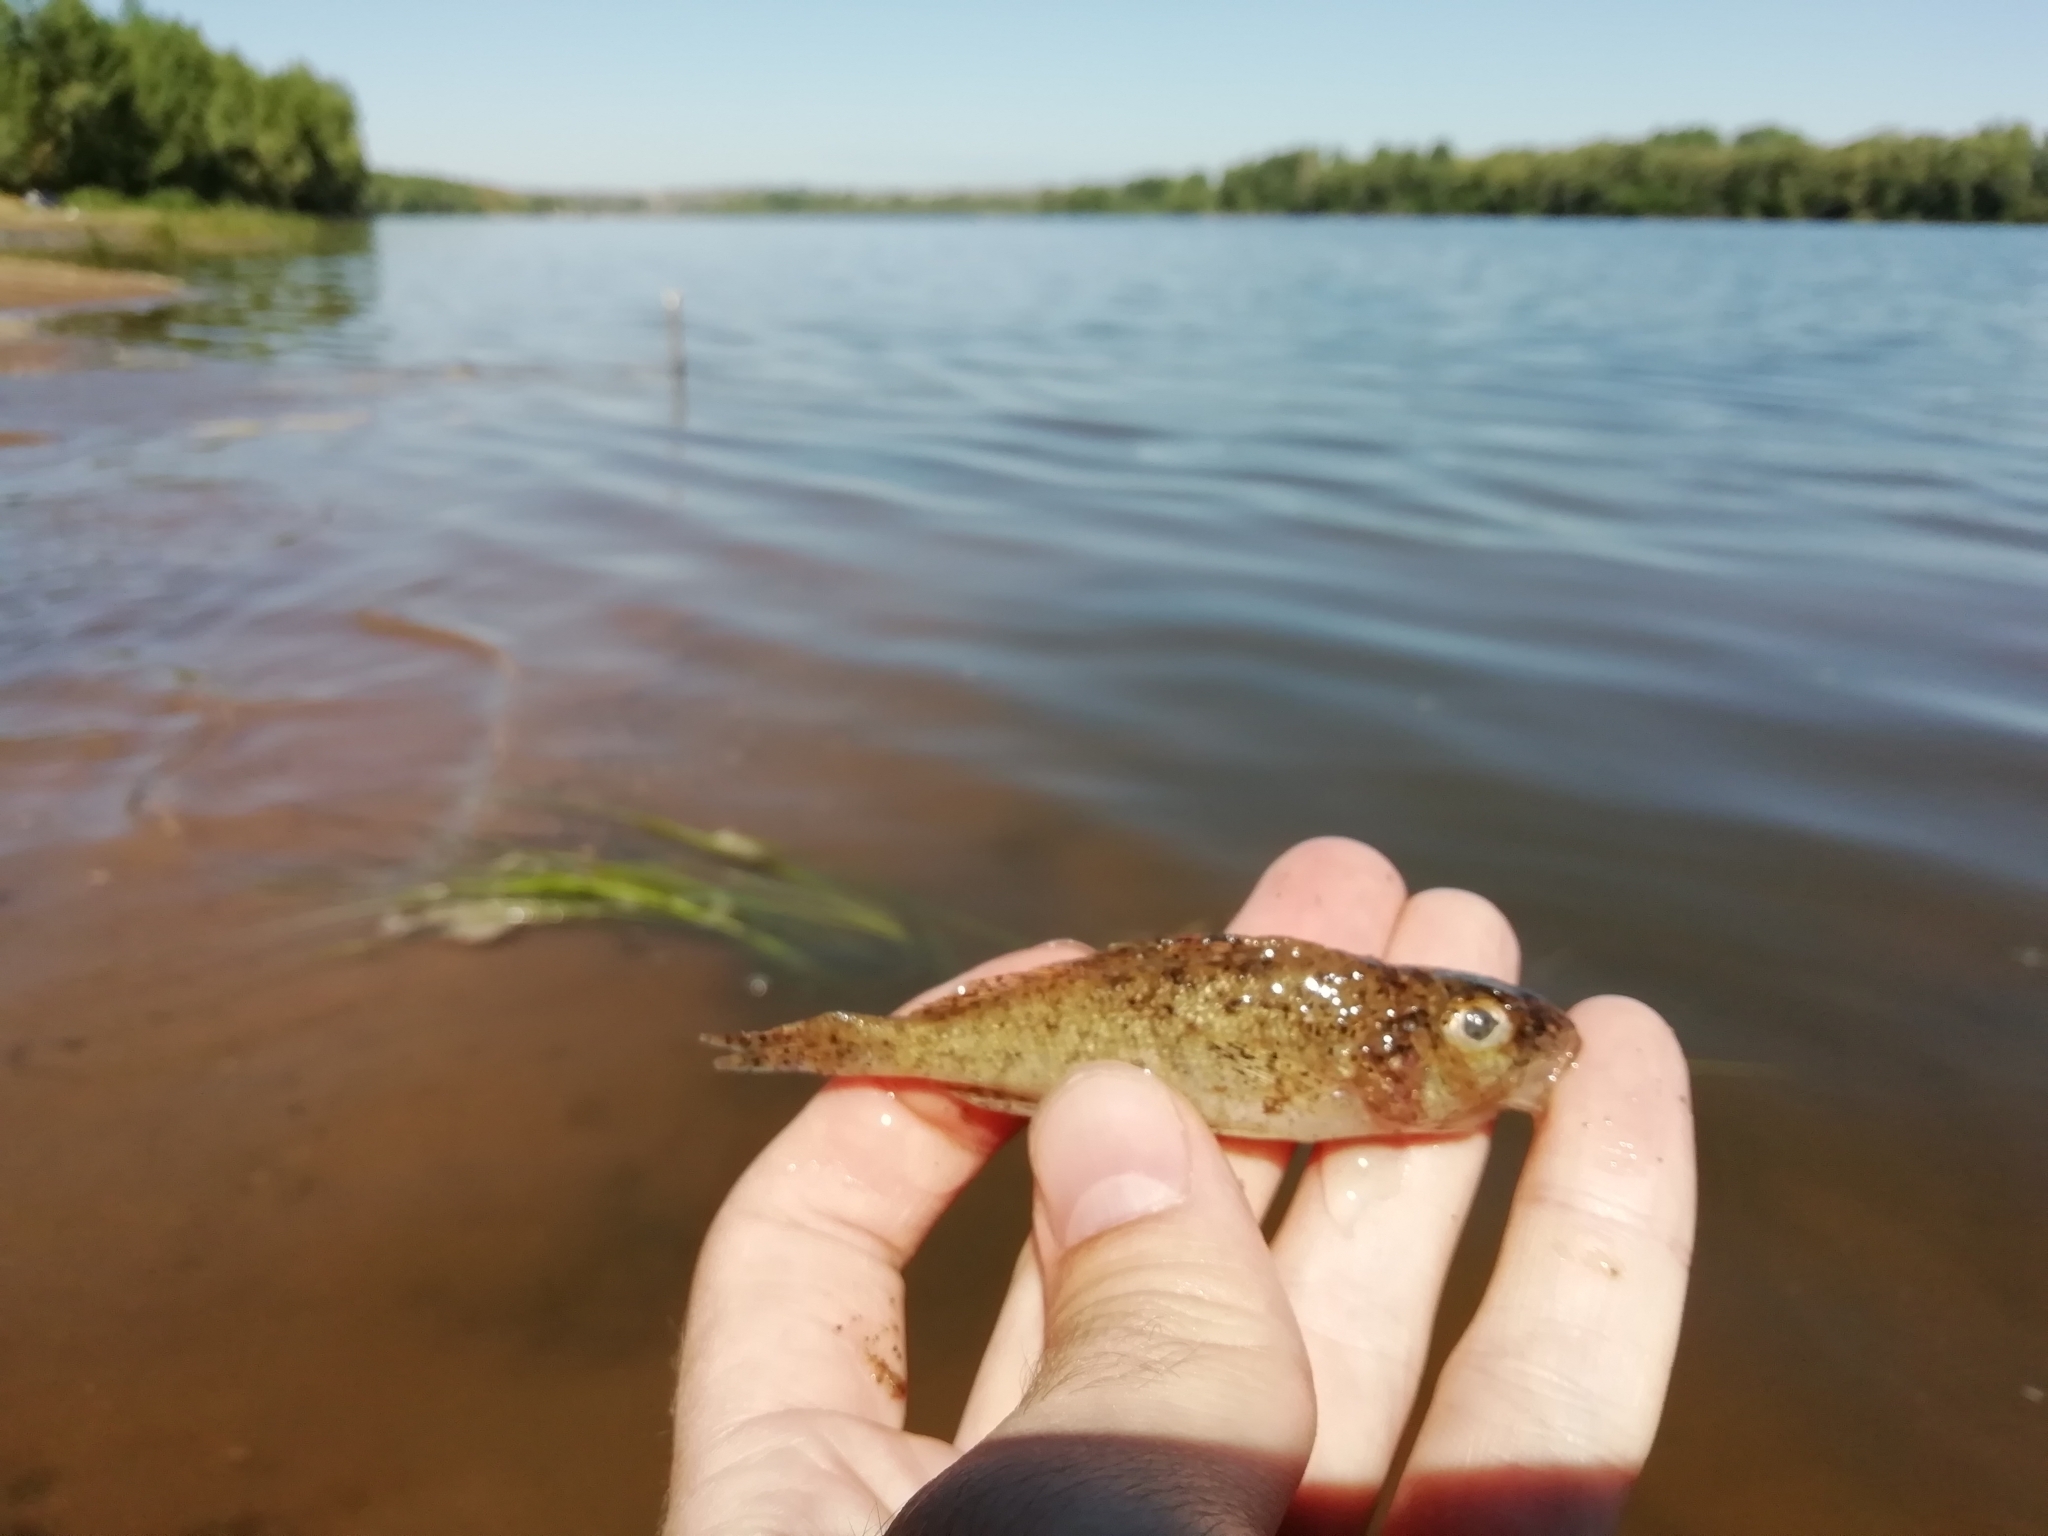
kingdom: Animalia
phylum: Chordata
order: Perciformes
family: Percidae
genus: Gymnocephalus
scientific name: Gymnocephalus cernua
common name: Ruffe
